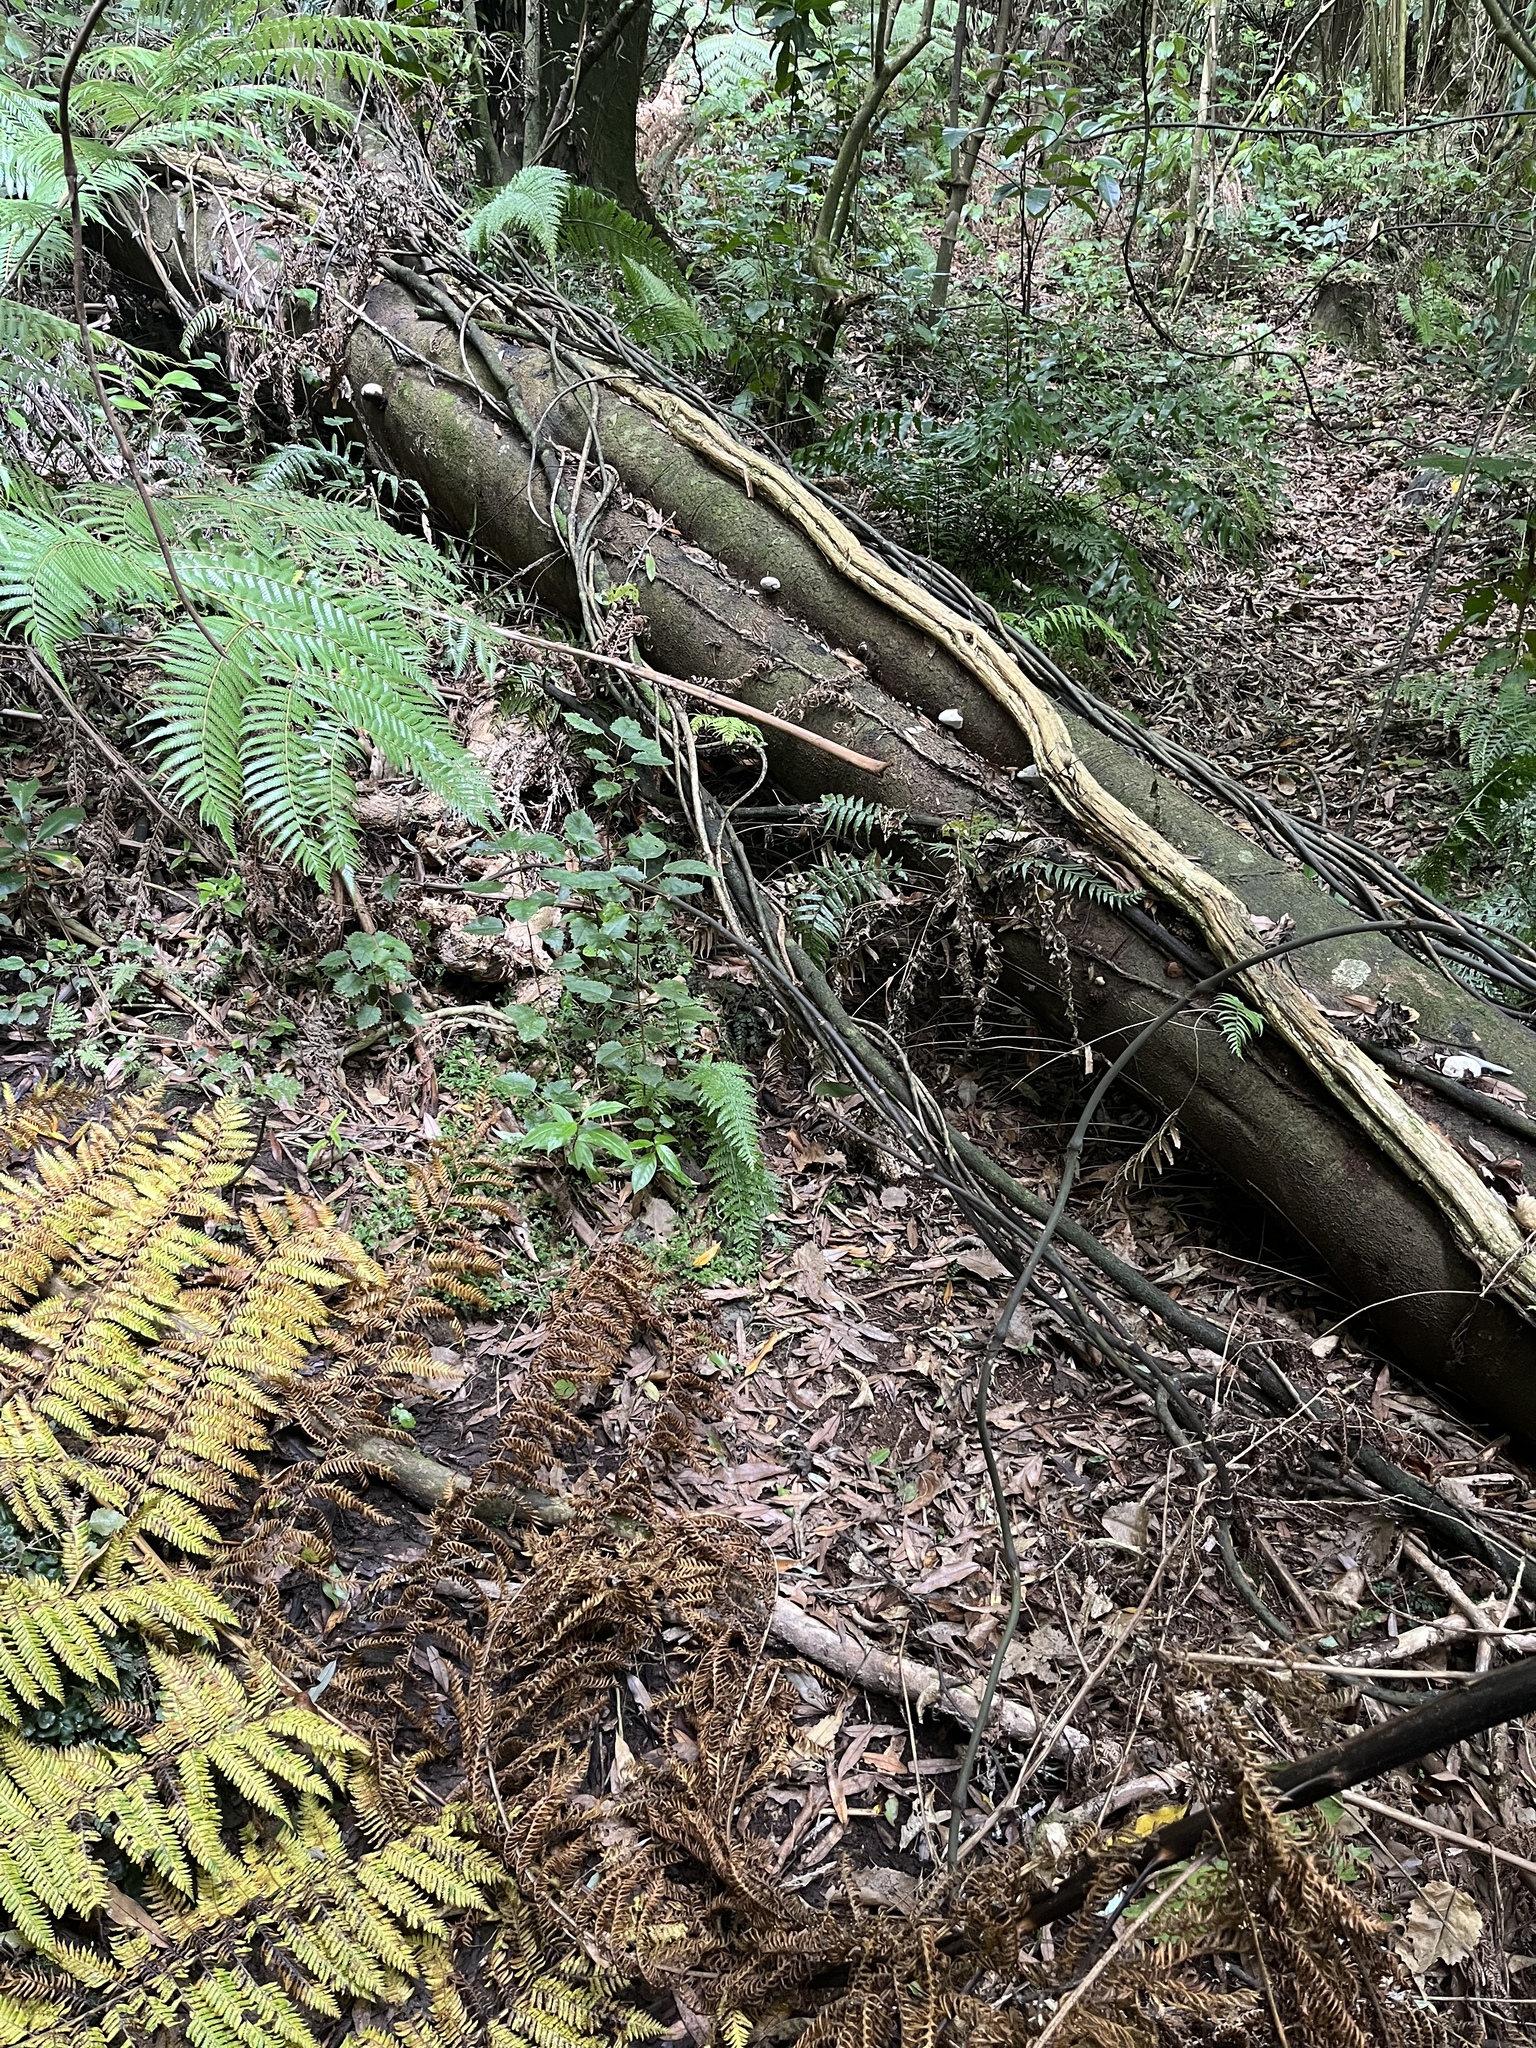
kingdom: Plantae
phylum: Tracheophyta
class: Lycopodiopsida
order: Selaginellales
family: Selaginellaceae
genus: Selaginella
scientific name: Selaginella kraussiana
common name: Krauss' spikemoss
